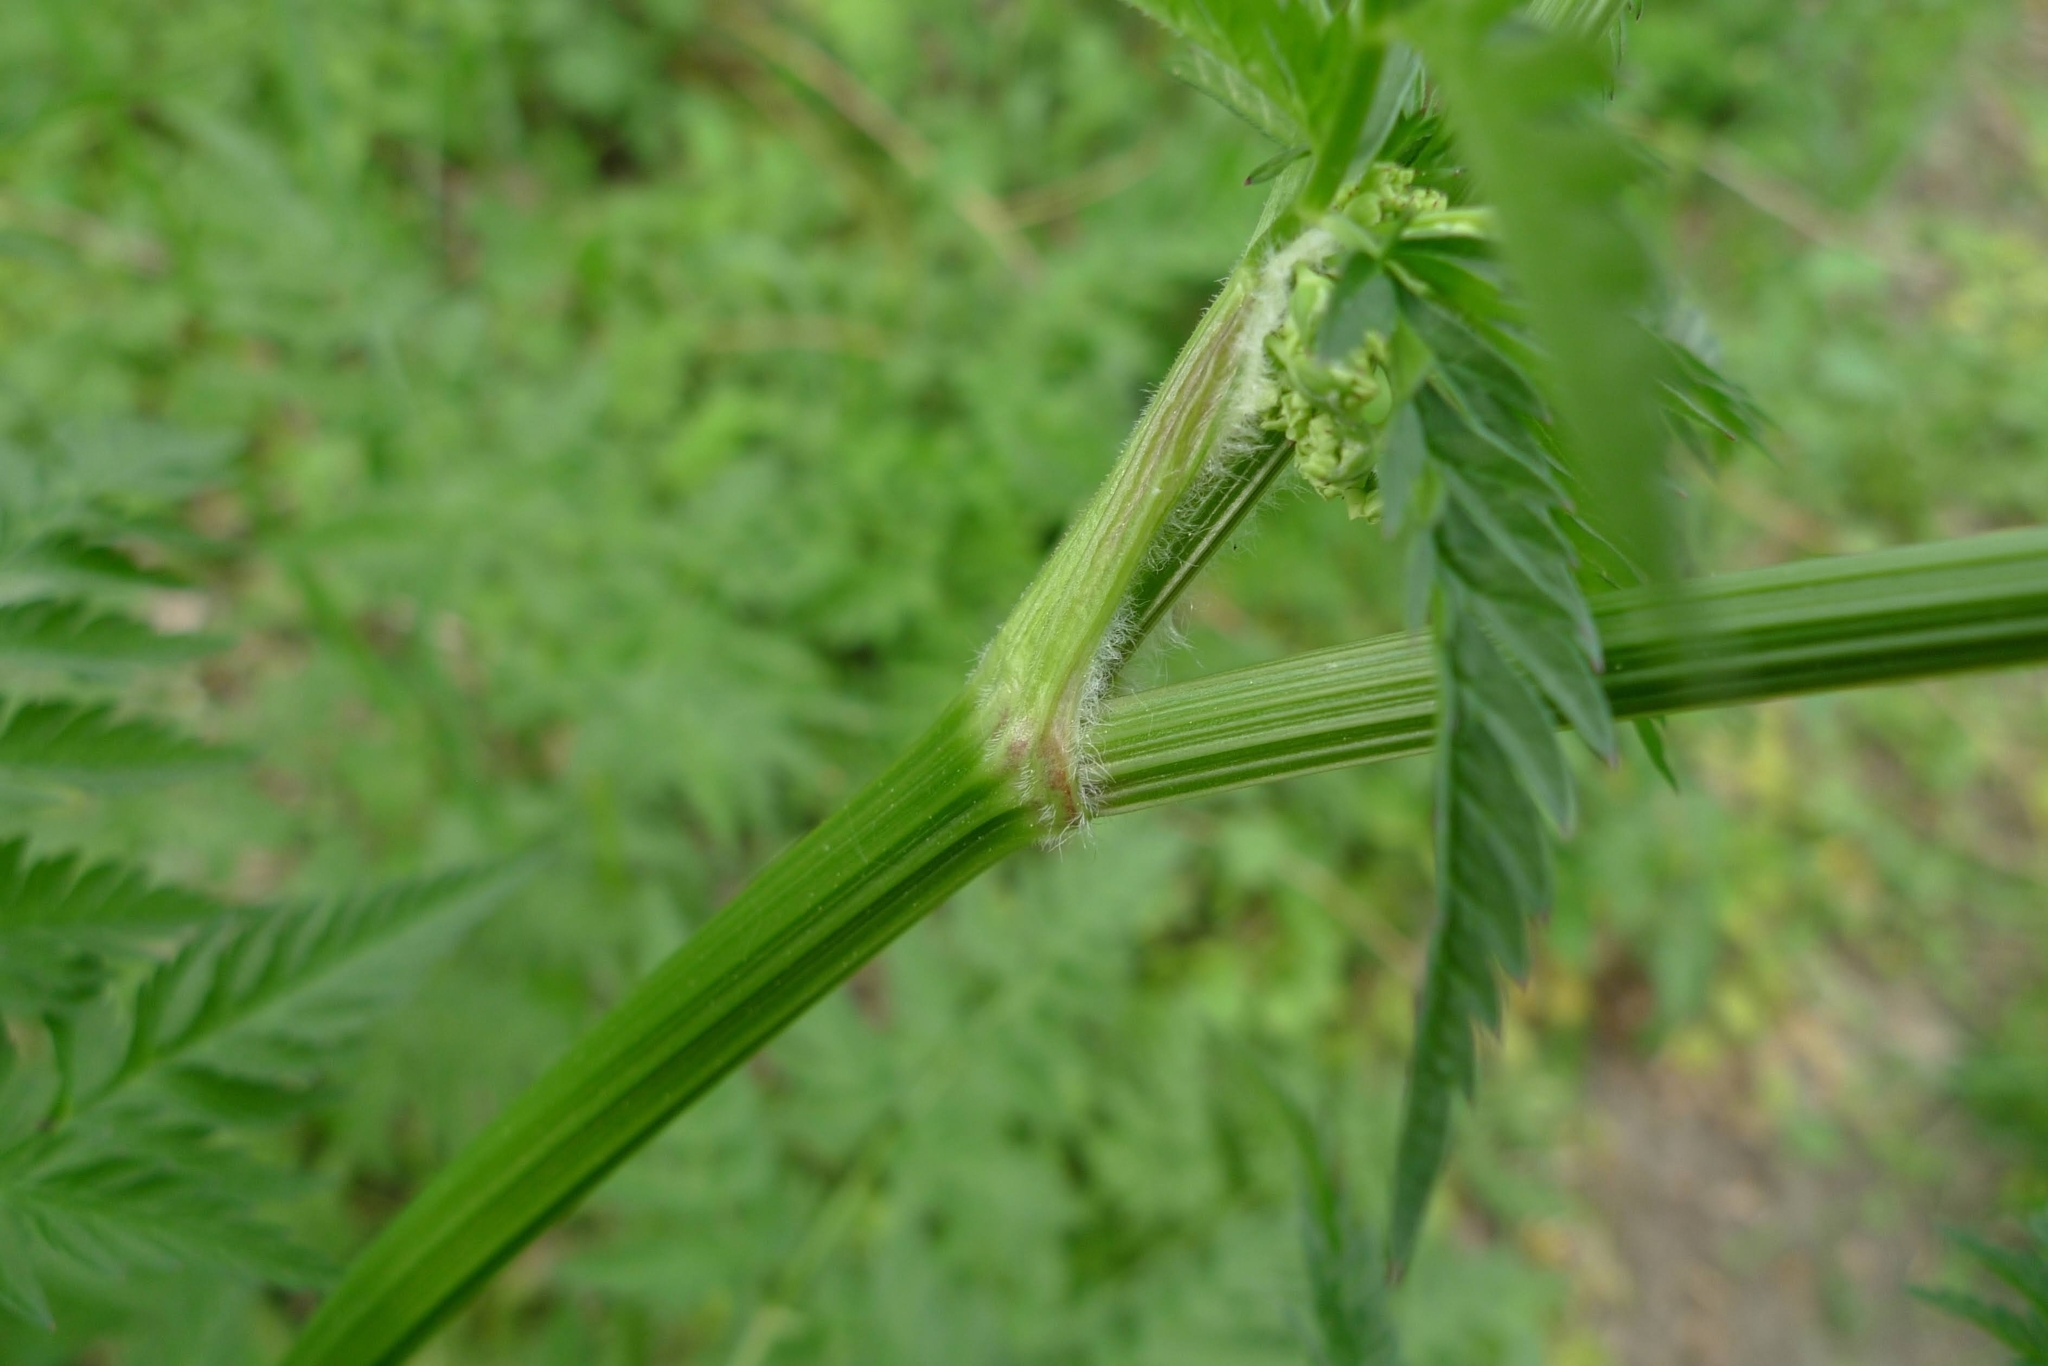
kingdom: Plantae
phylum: Tracheophyta
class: Magnoliopsida
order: Apiales
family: Apiaceae
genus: Anthriscus
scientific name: Anthriscus sylvestris
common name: Cow parsley
